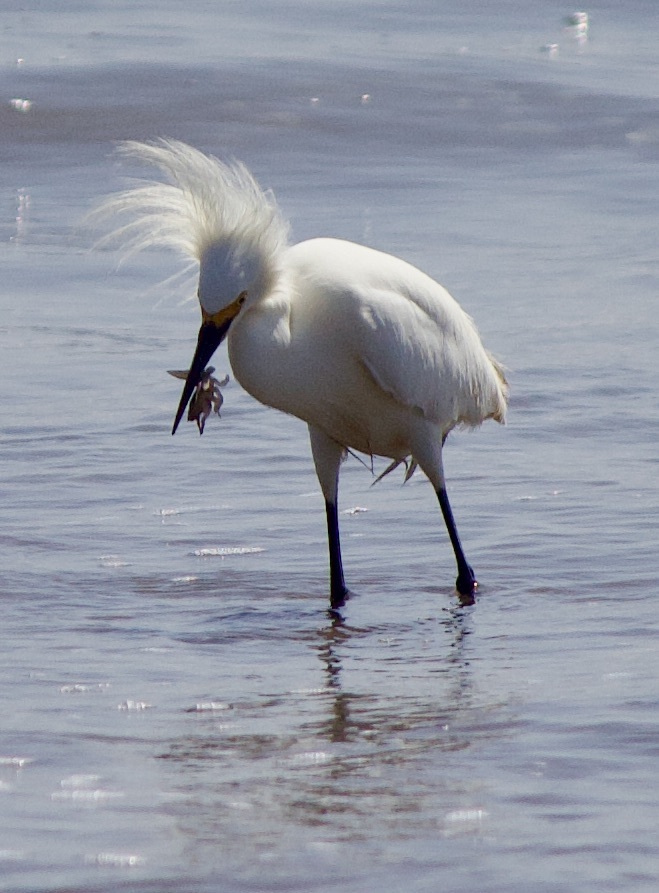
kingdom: Animalia
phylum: Chordata
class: Aves
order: Pelecaniformes
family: Ardeidae
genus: Egretta
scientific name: Egretta thula
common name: Snowy egret
